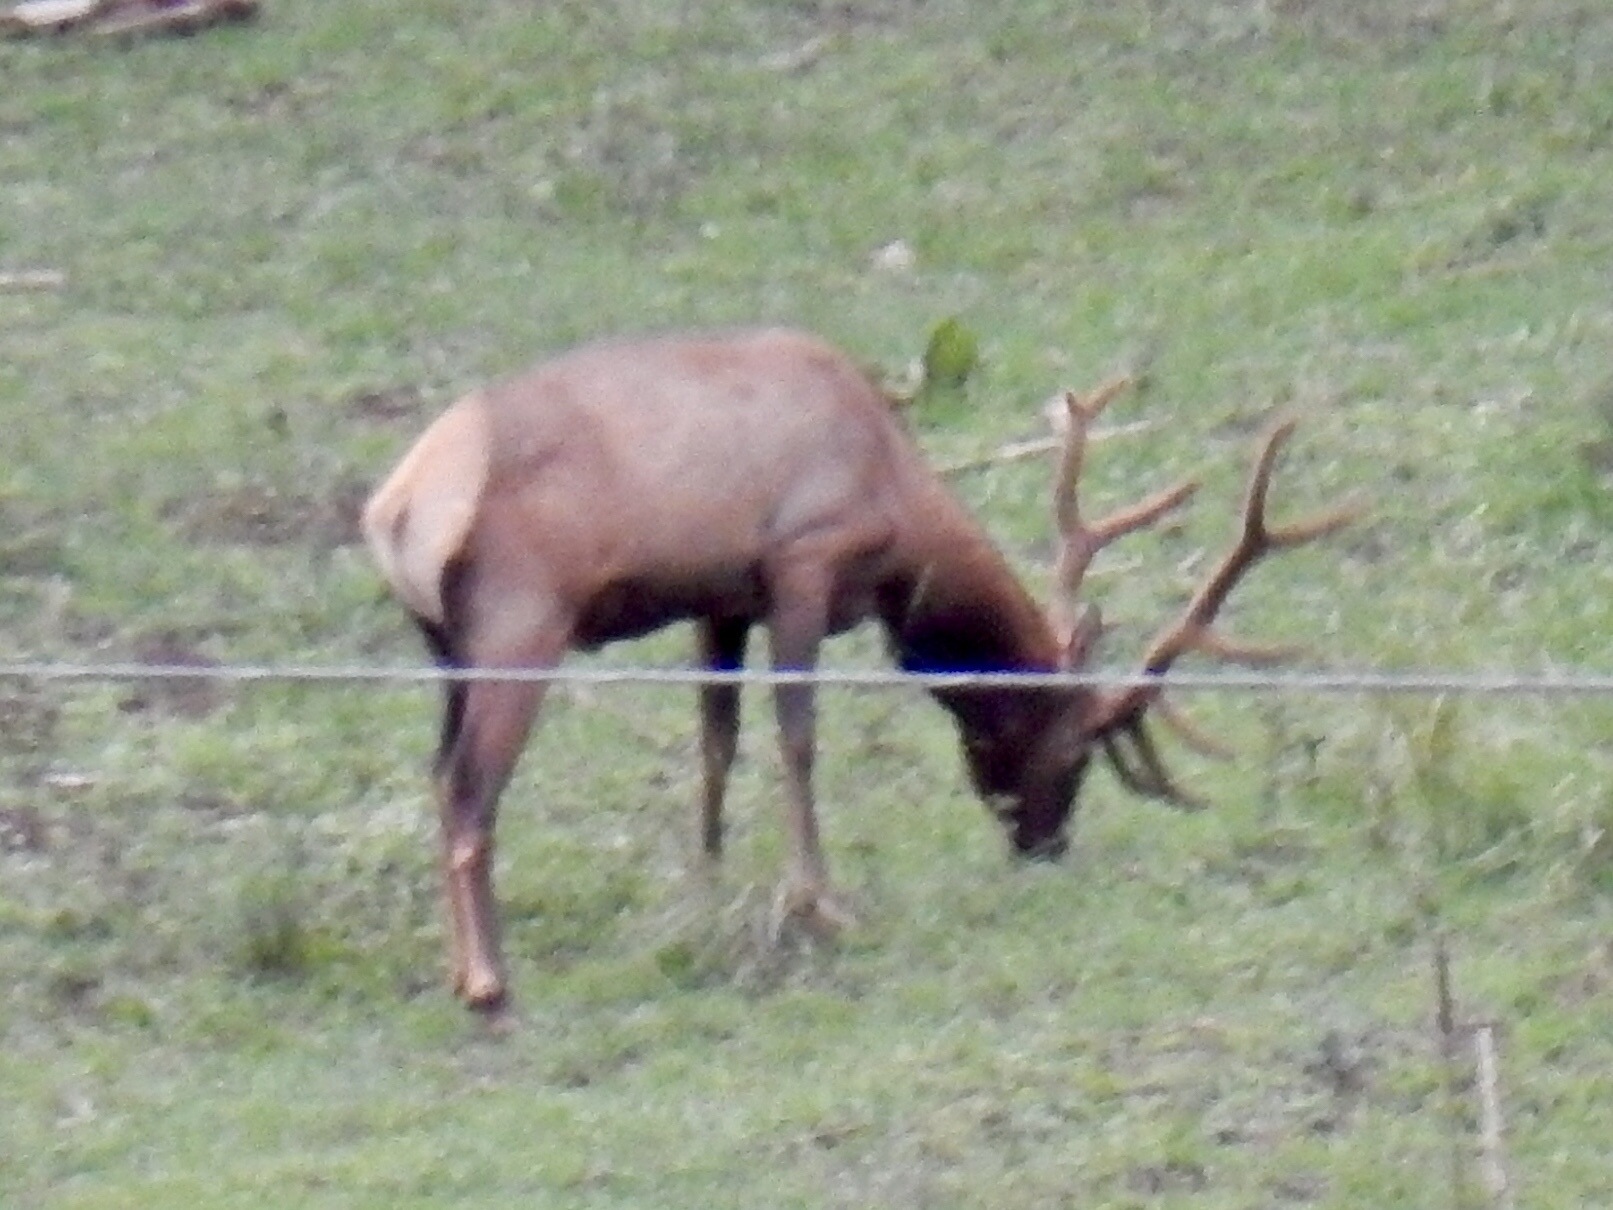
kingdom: Animalia
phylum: Chordata
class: Mammalia
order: Artiodactyla
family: Cervidae
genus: Cervus
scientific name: Cervus elaphus
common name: Red deer
